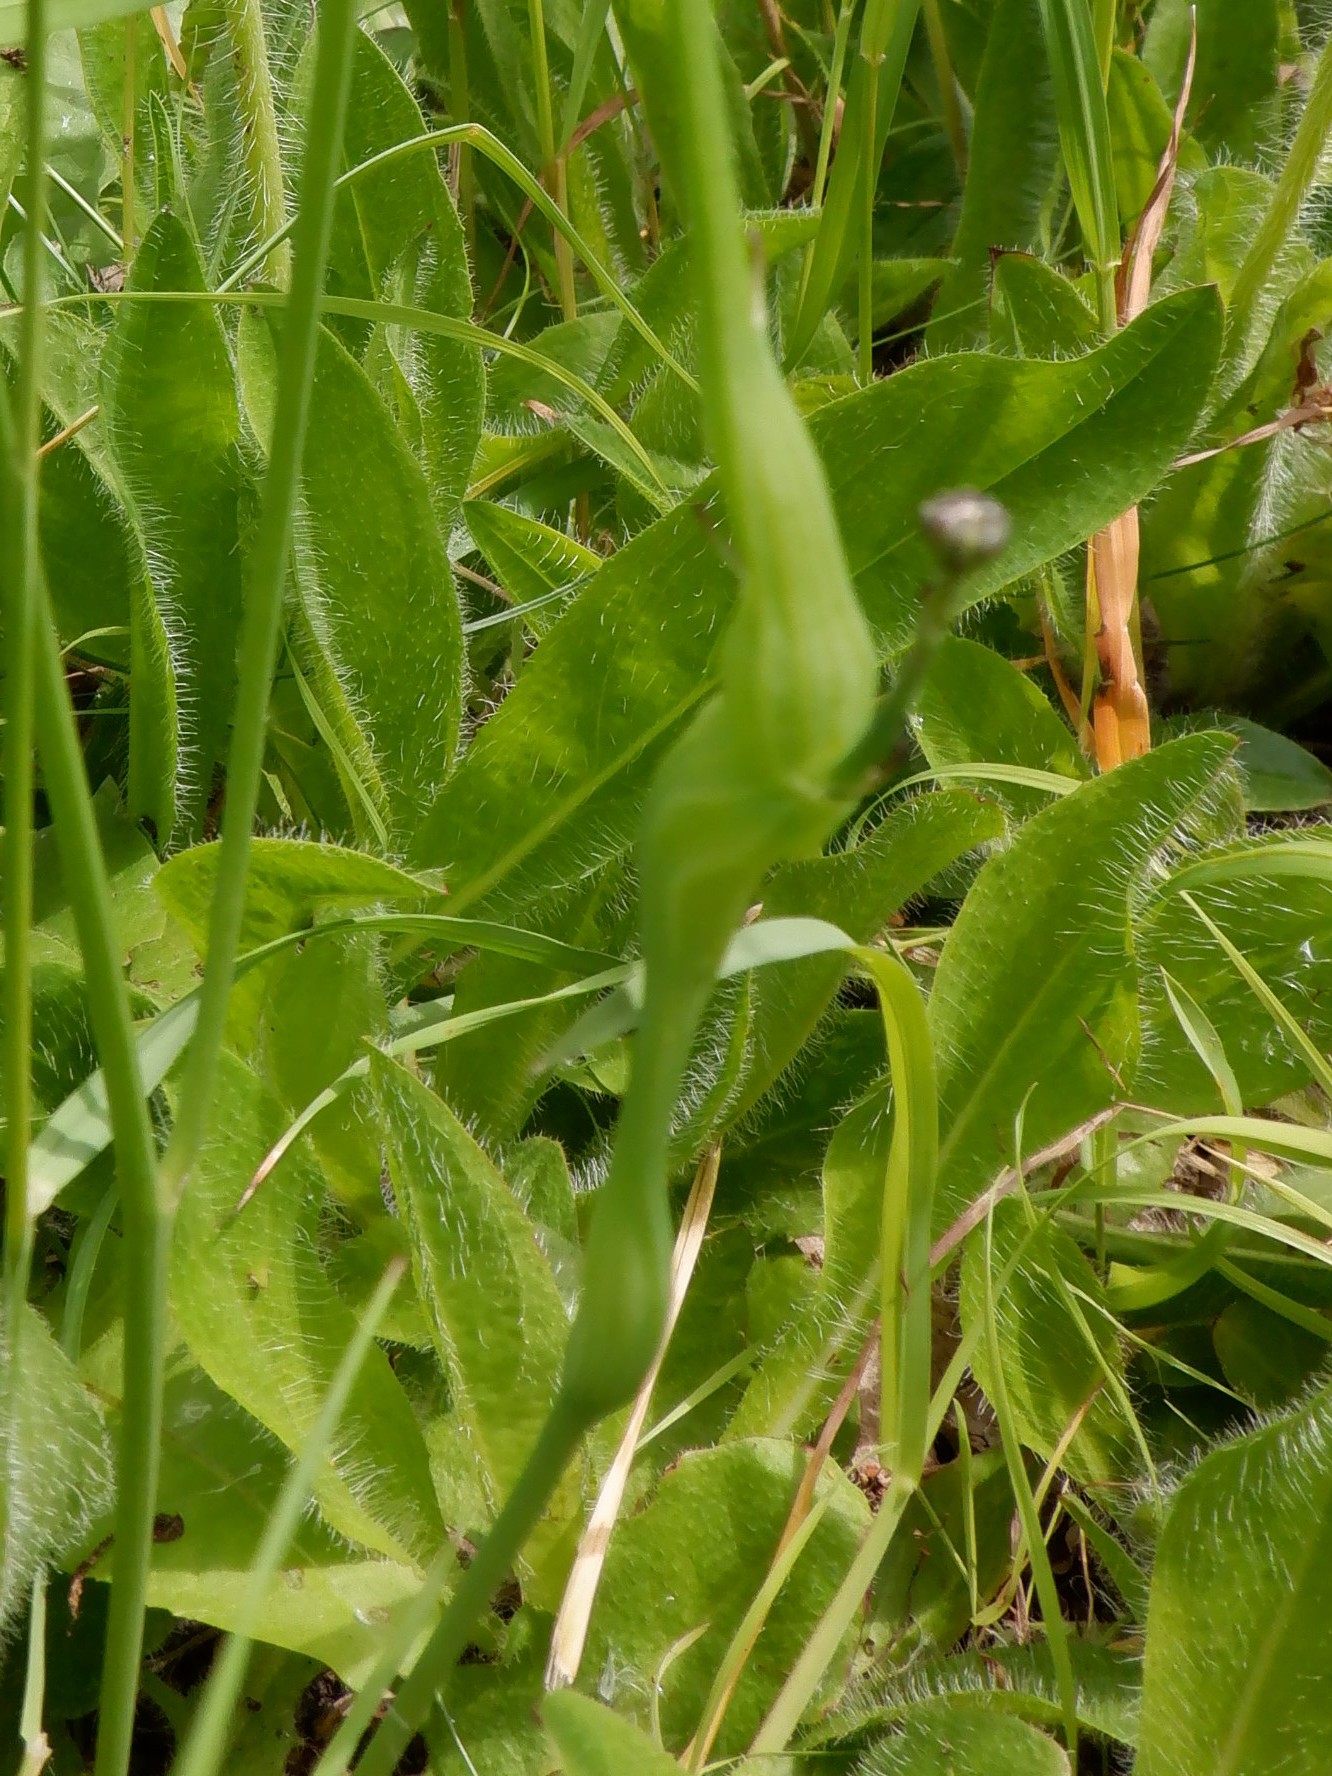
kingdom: Animalia
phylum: Arthropoda
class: Insecta
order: Hymenoptera
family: Cynipidae
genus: Phanacis
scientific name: Phanacis hypochoeridis
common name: Gall wasp
